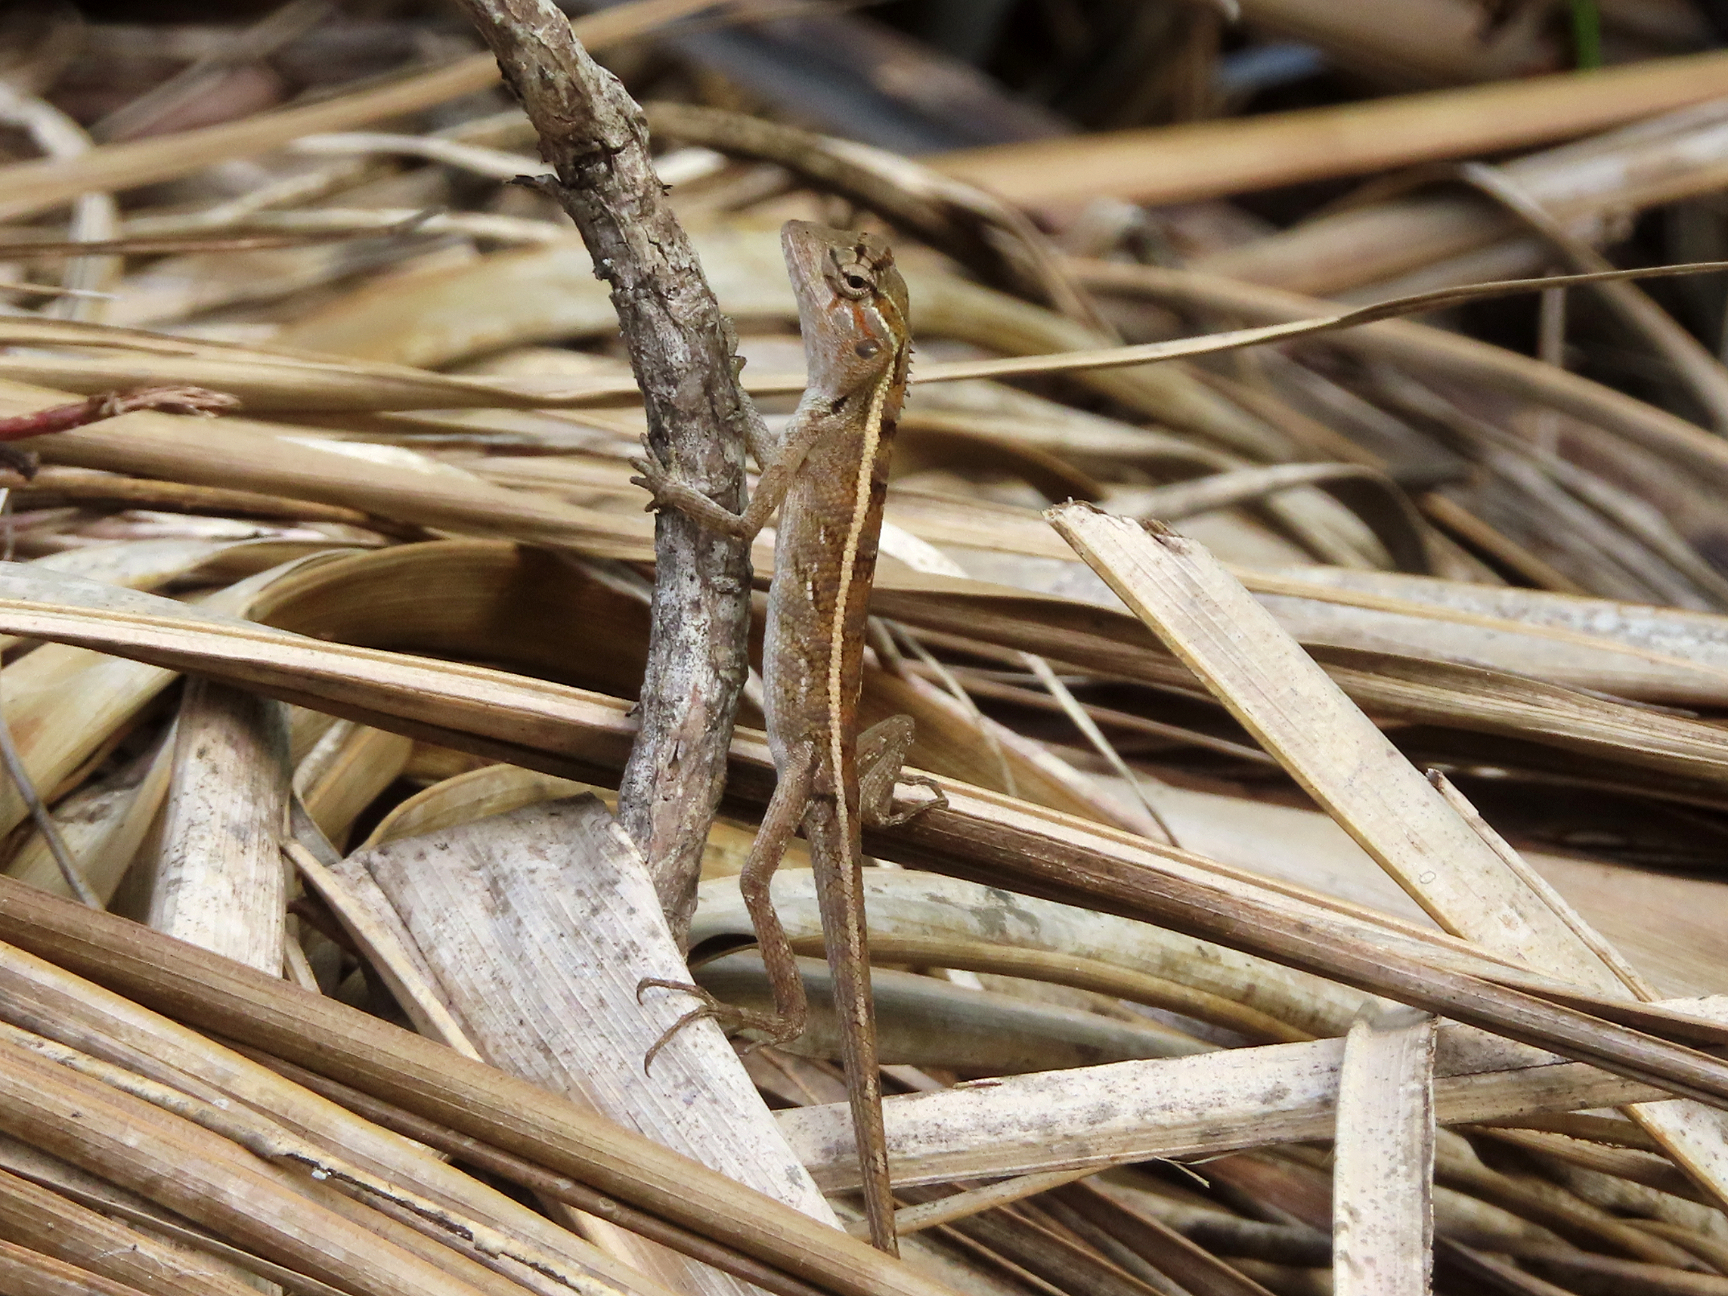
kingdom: Animalia
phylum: Chordata
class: Squamata
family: Agamidae
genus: Calotes
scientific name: Calotes versicolor
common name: Oriental garden lizard
